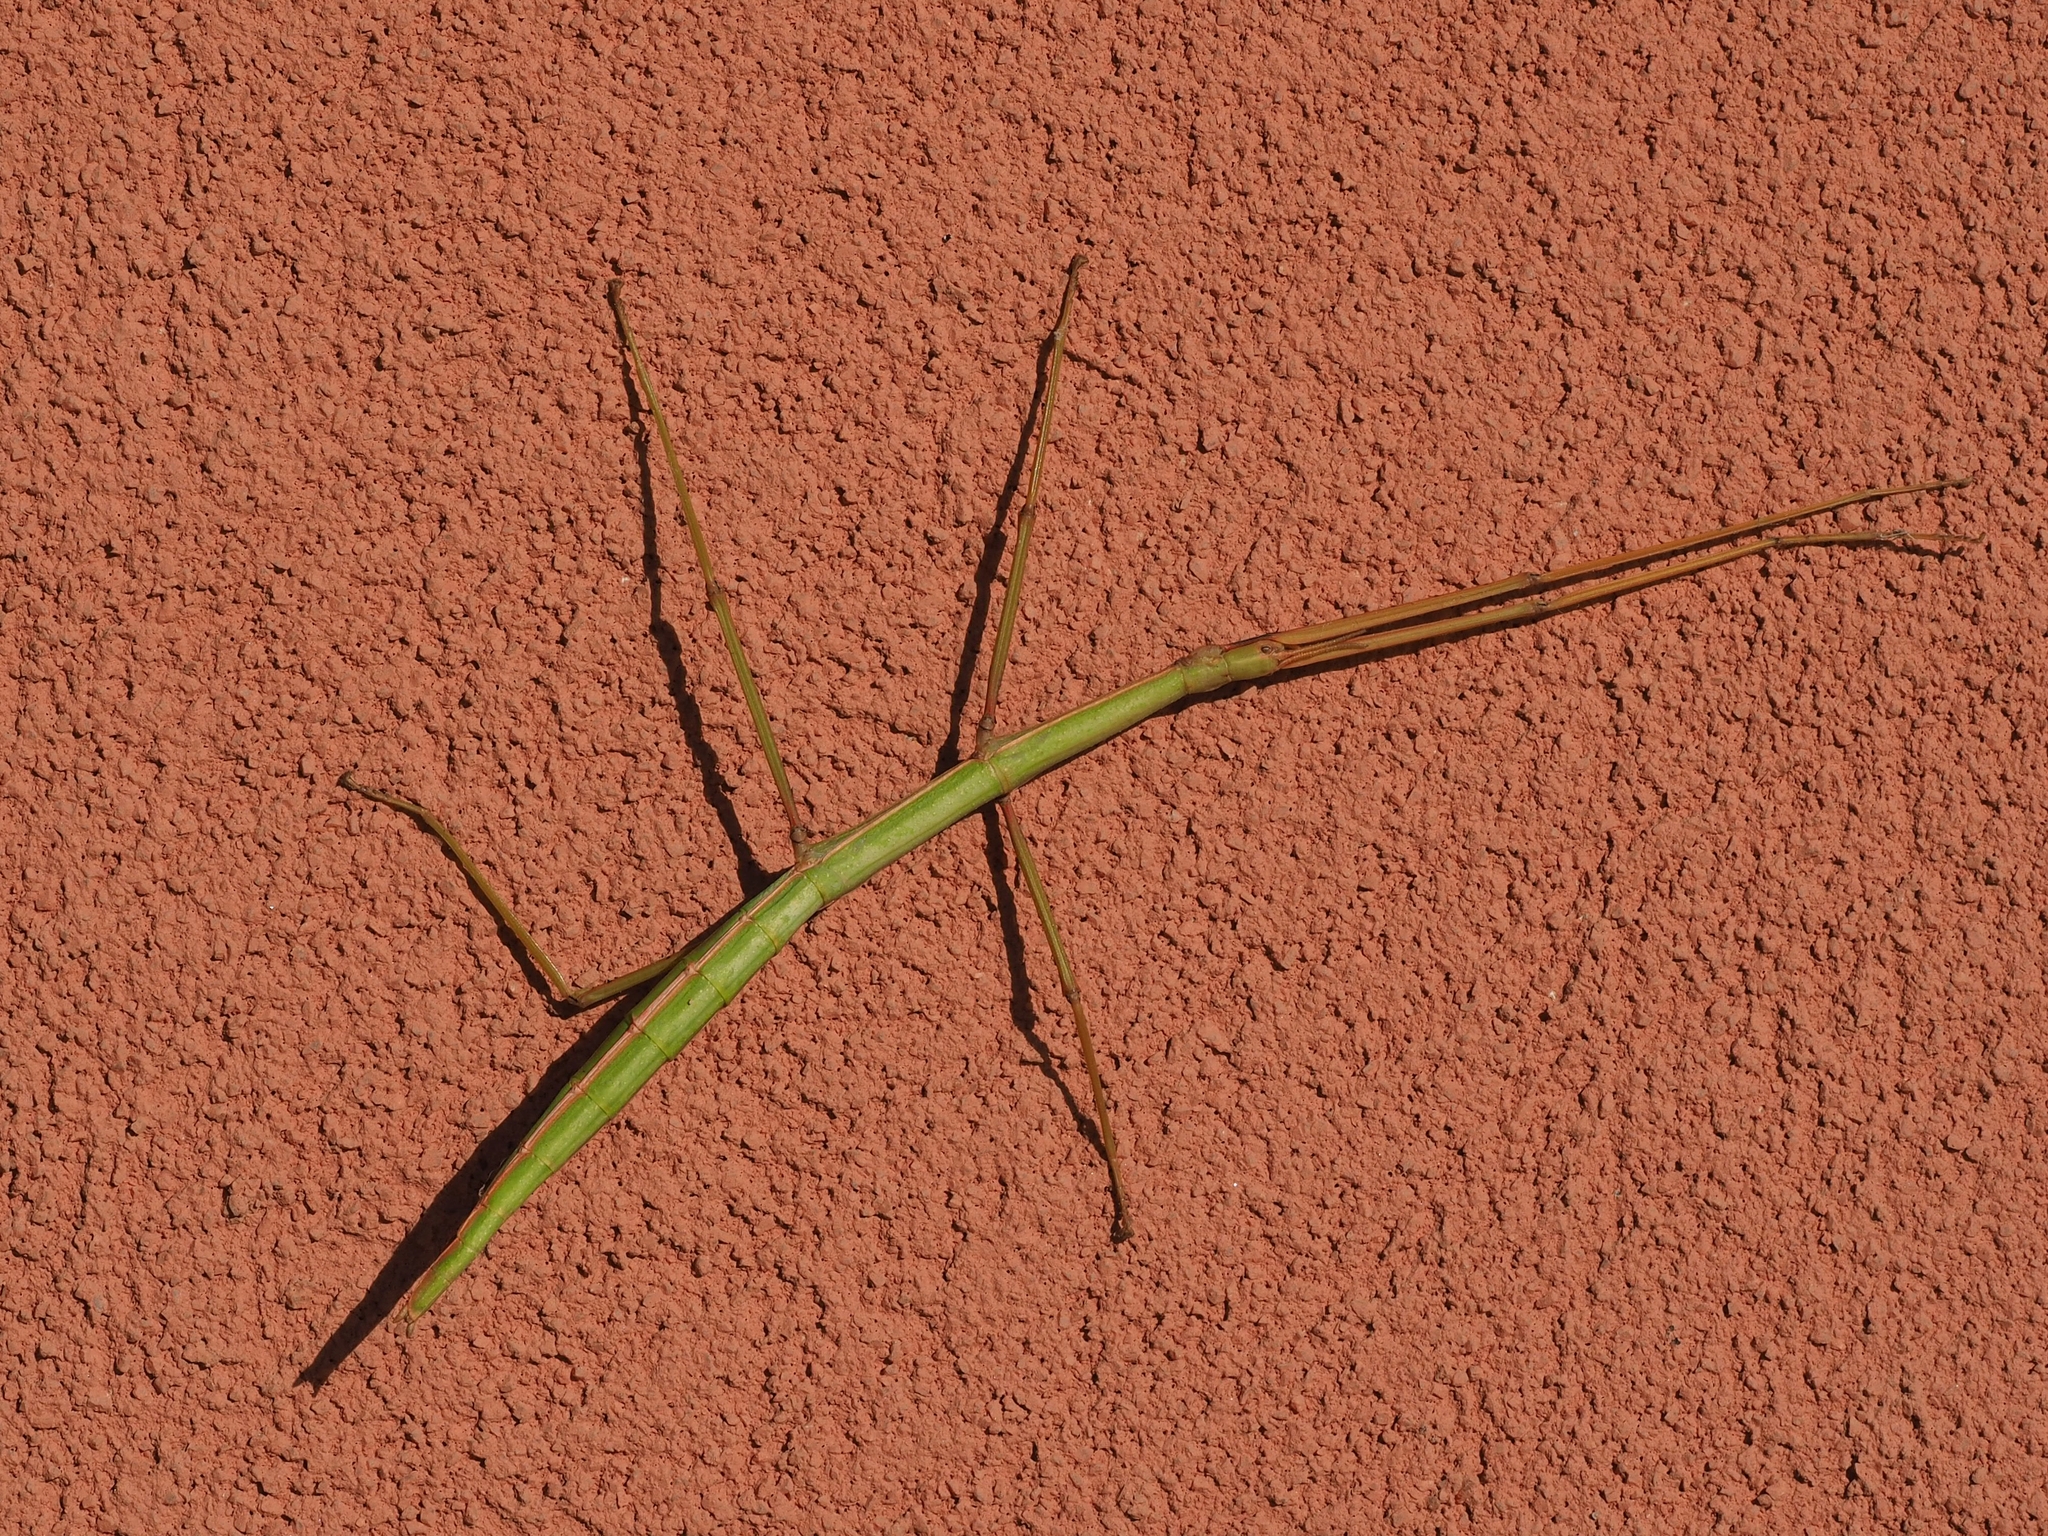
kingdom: Animalia
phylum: Arthropoda
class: Insecta
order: Phasmida
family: Bacillidae
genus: Bacillus
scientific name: Bacillus rossius
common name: Corsican stick-insect
